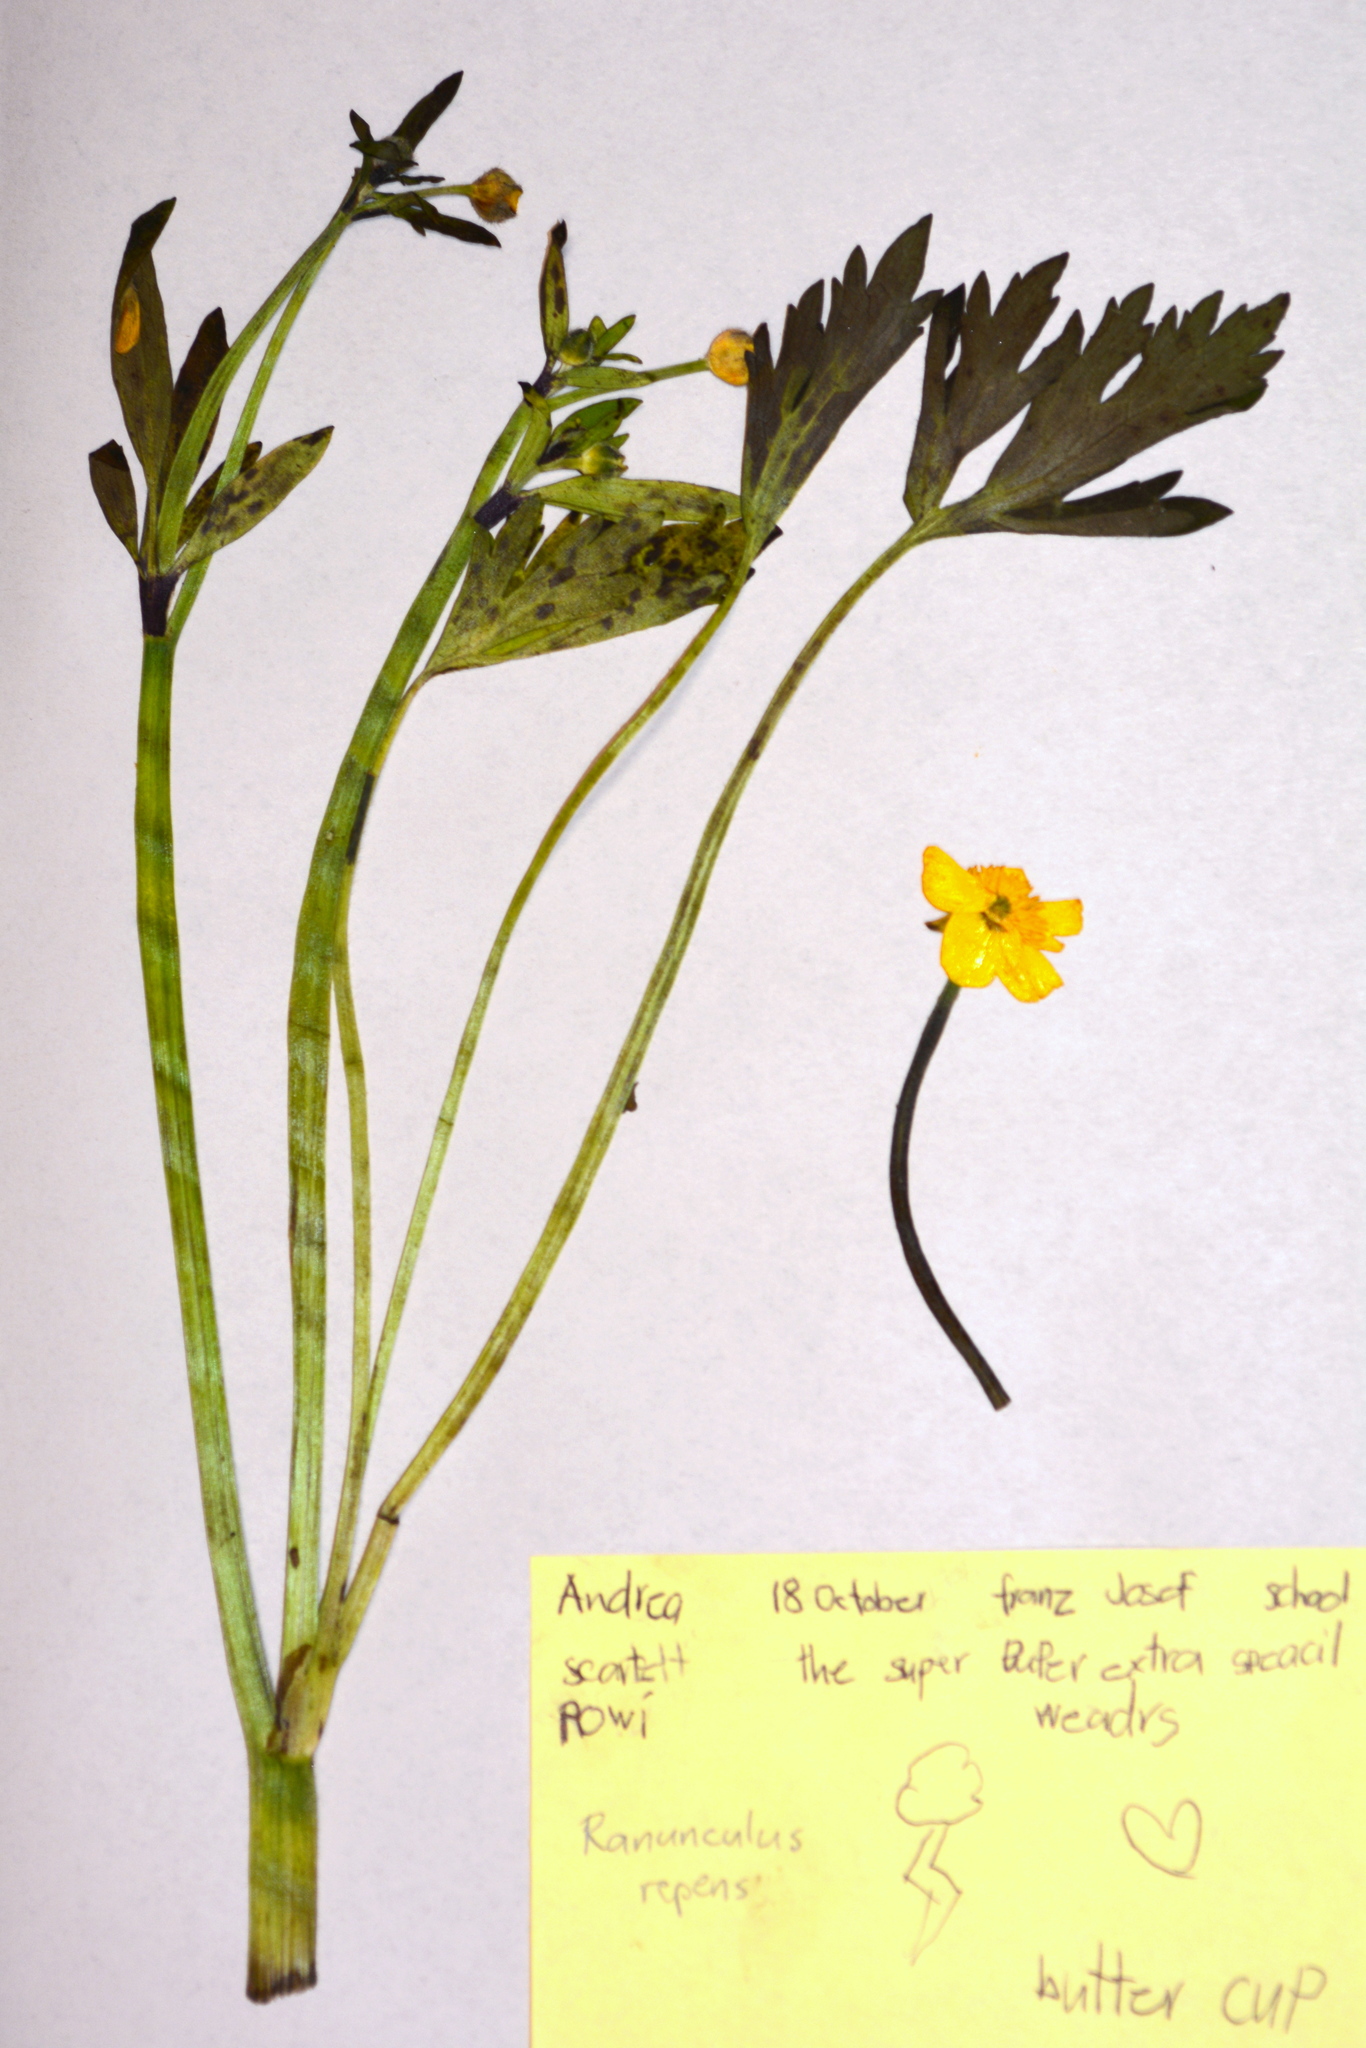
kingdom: Plantae
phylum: Tracheophyta
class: Magnoliopsida
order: Ranunculales
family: Ranunculaceae
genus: Ranunculus
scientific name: Ranunculus repens
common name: Creeping buttercup
